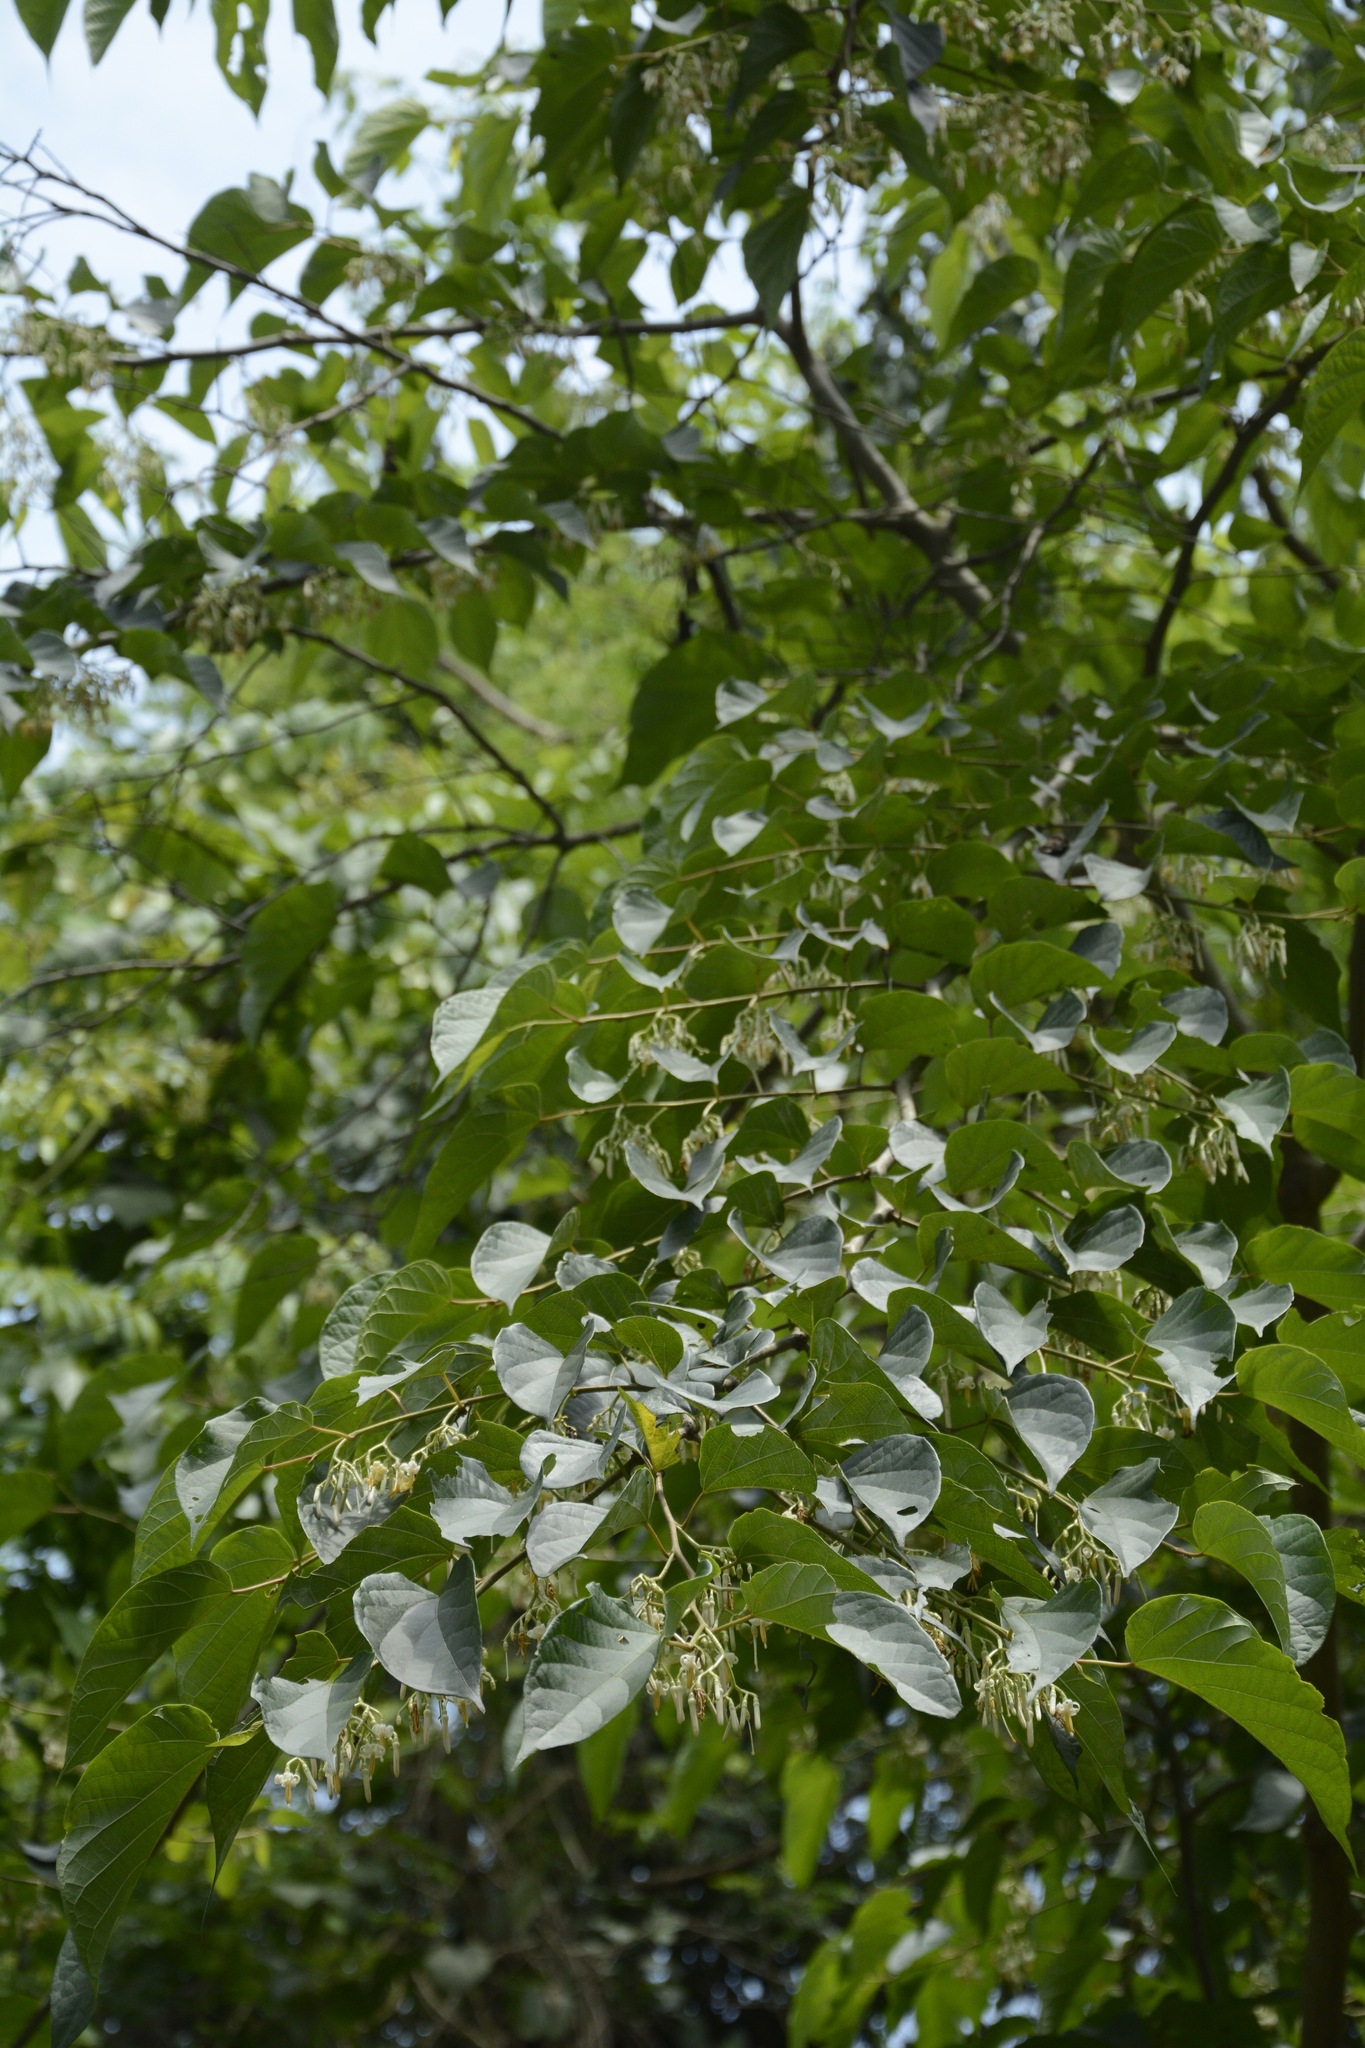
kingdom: Plantae
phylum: Tracheophyta
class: Magnoliopsida
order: Cornales
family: Cornaceae
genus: Alangium
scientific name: Alangium chinense
